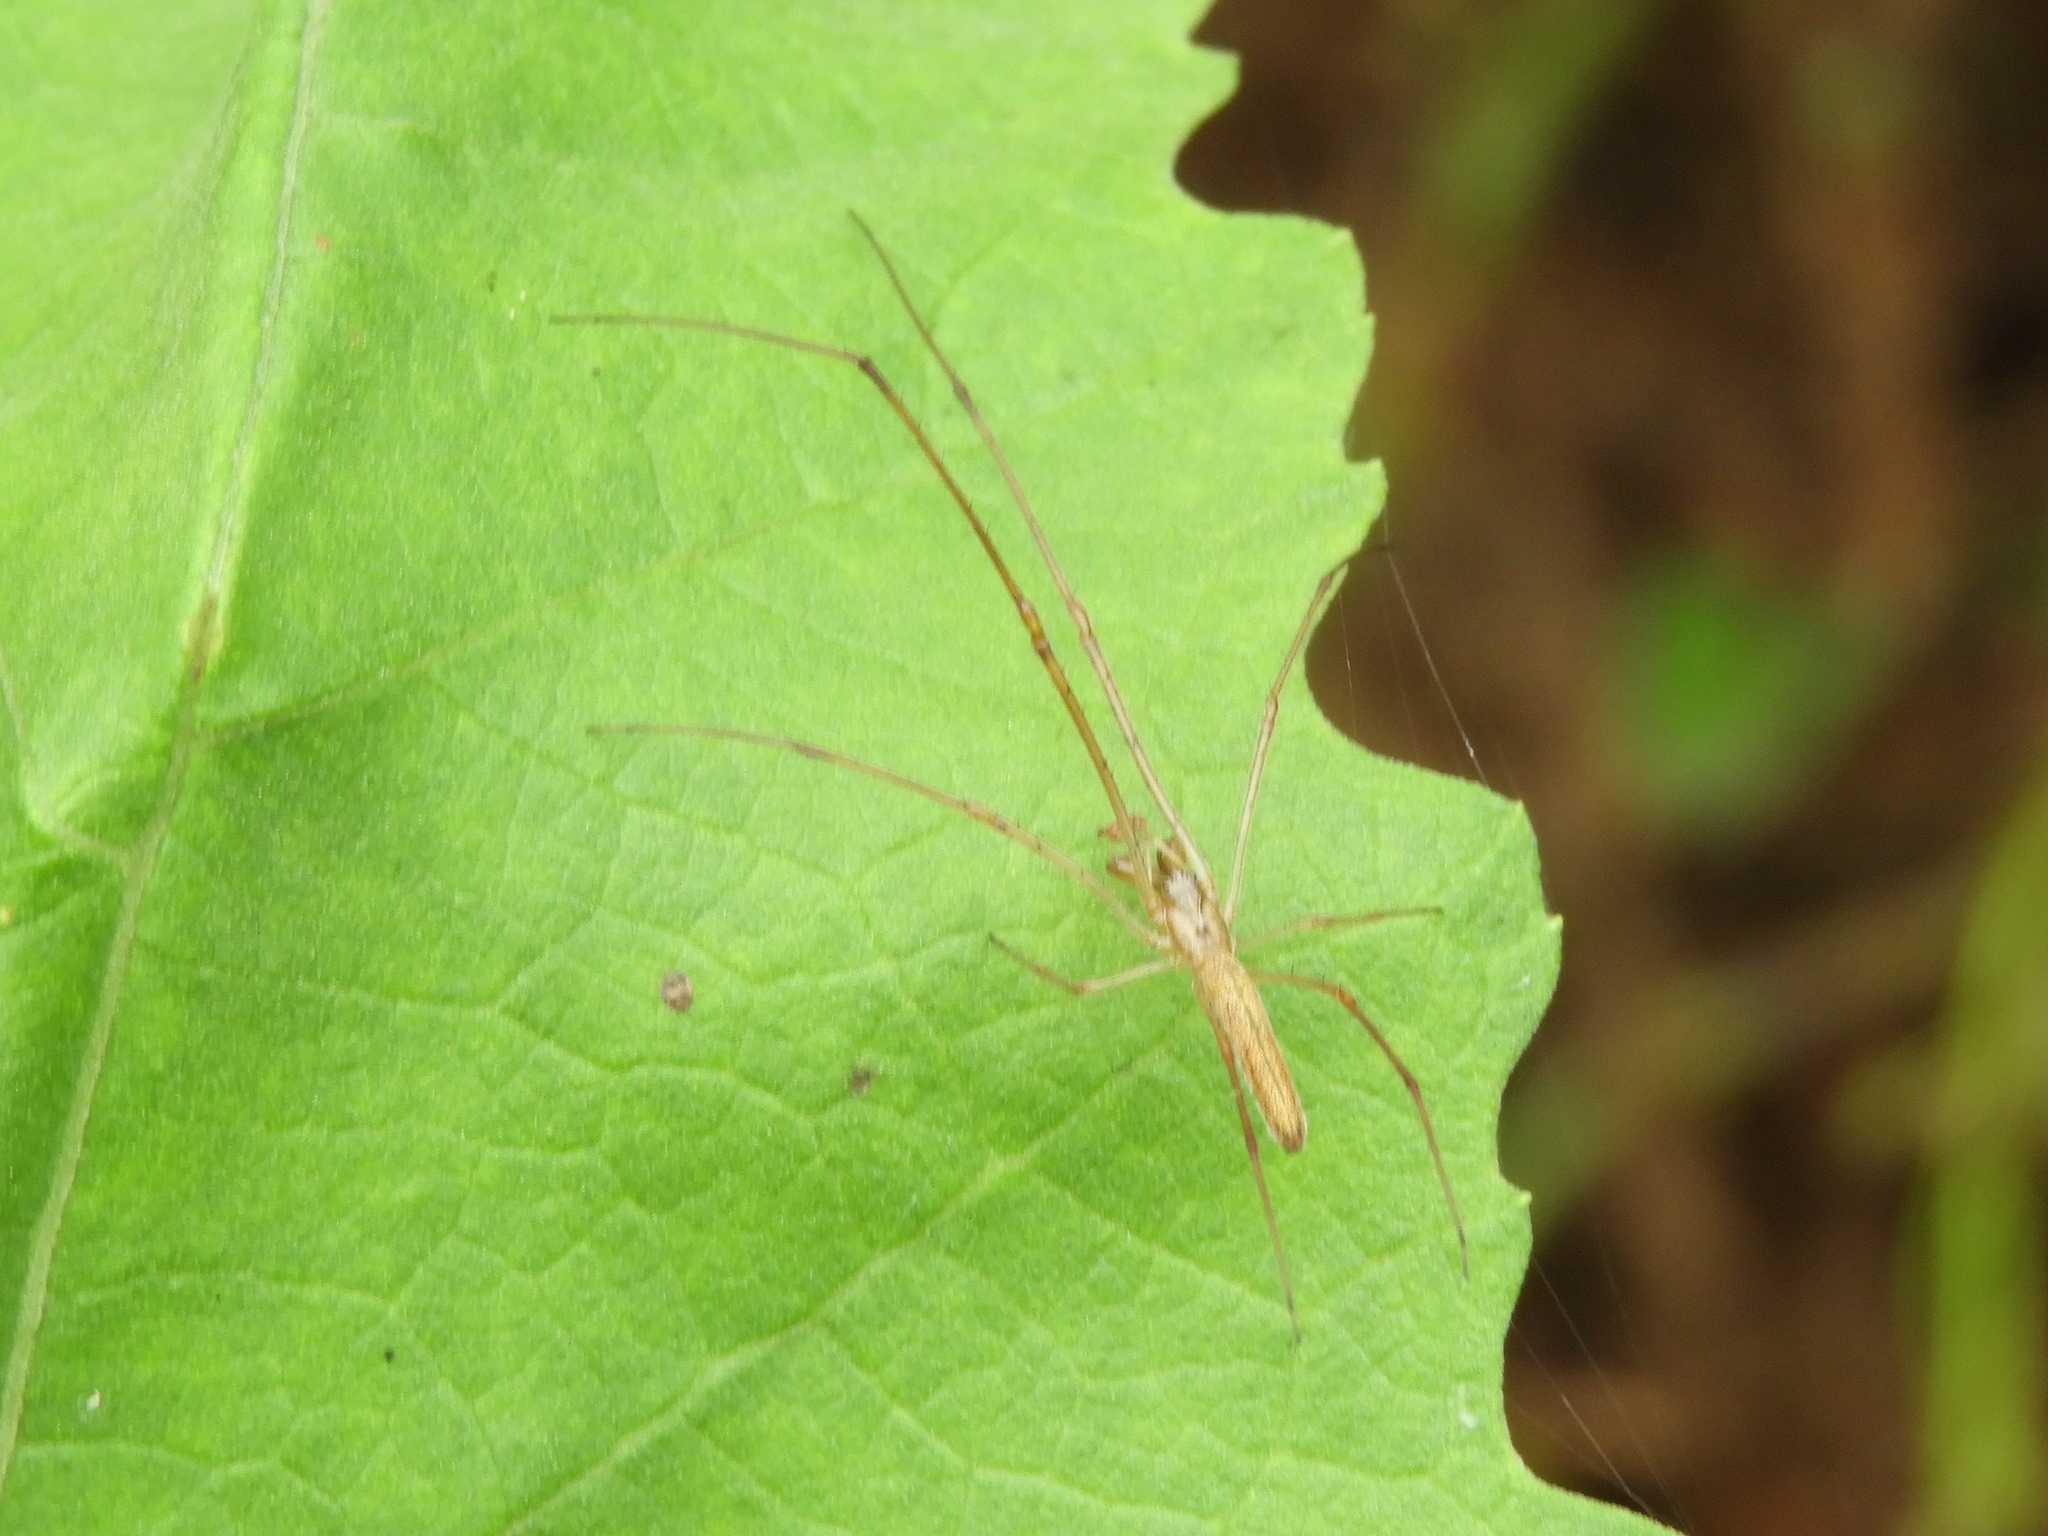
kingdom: Animalia
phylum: Arthropoda
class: Arachnida
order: Araneae
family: Tetragnathidae
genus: Tetragnatha
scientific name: Tetragnatha
